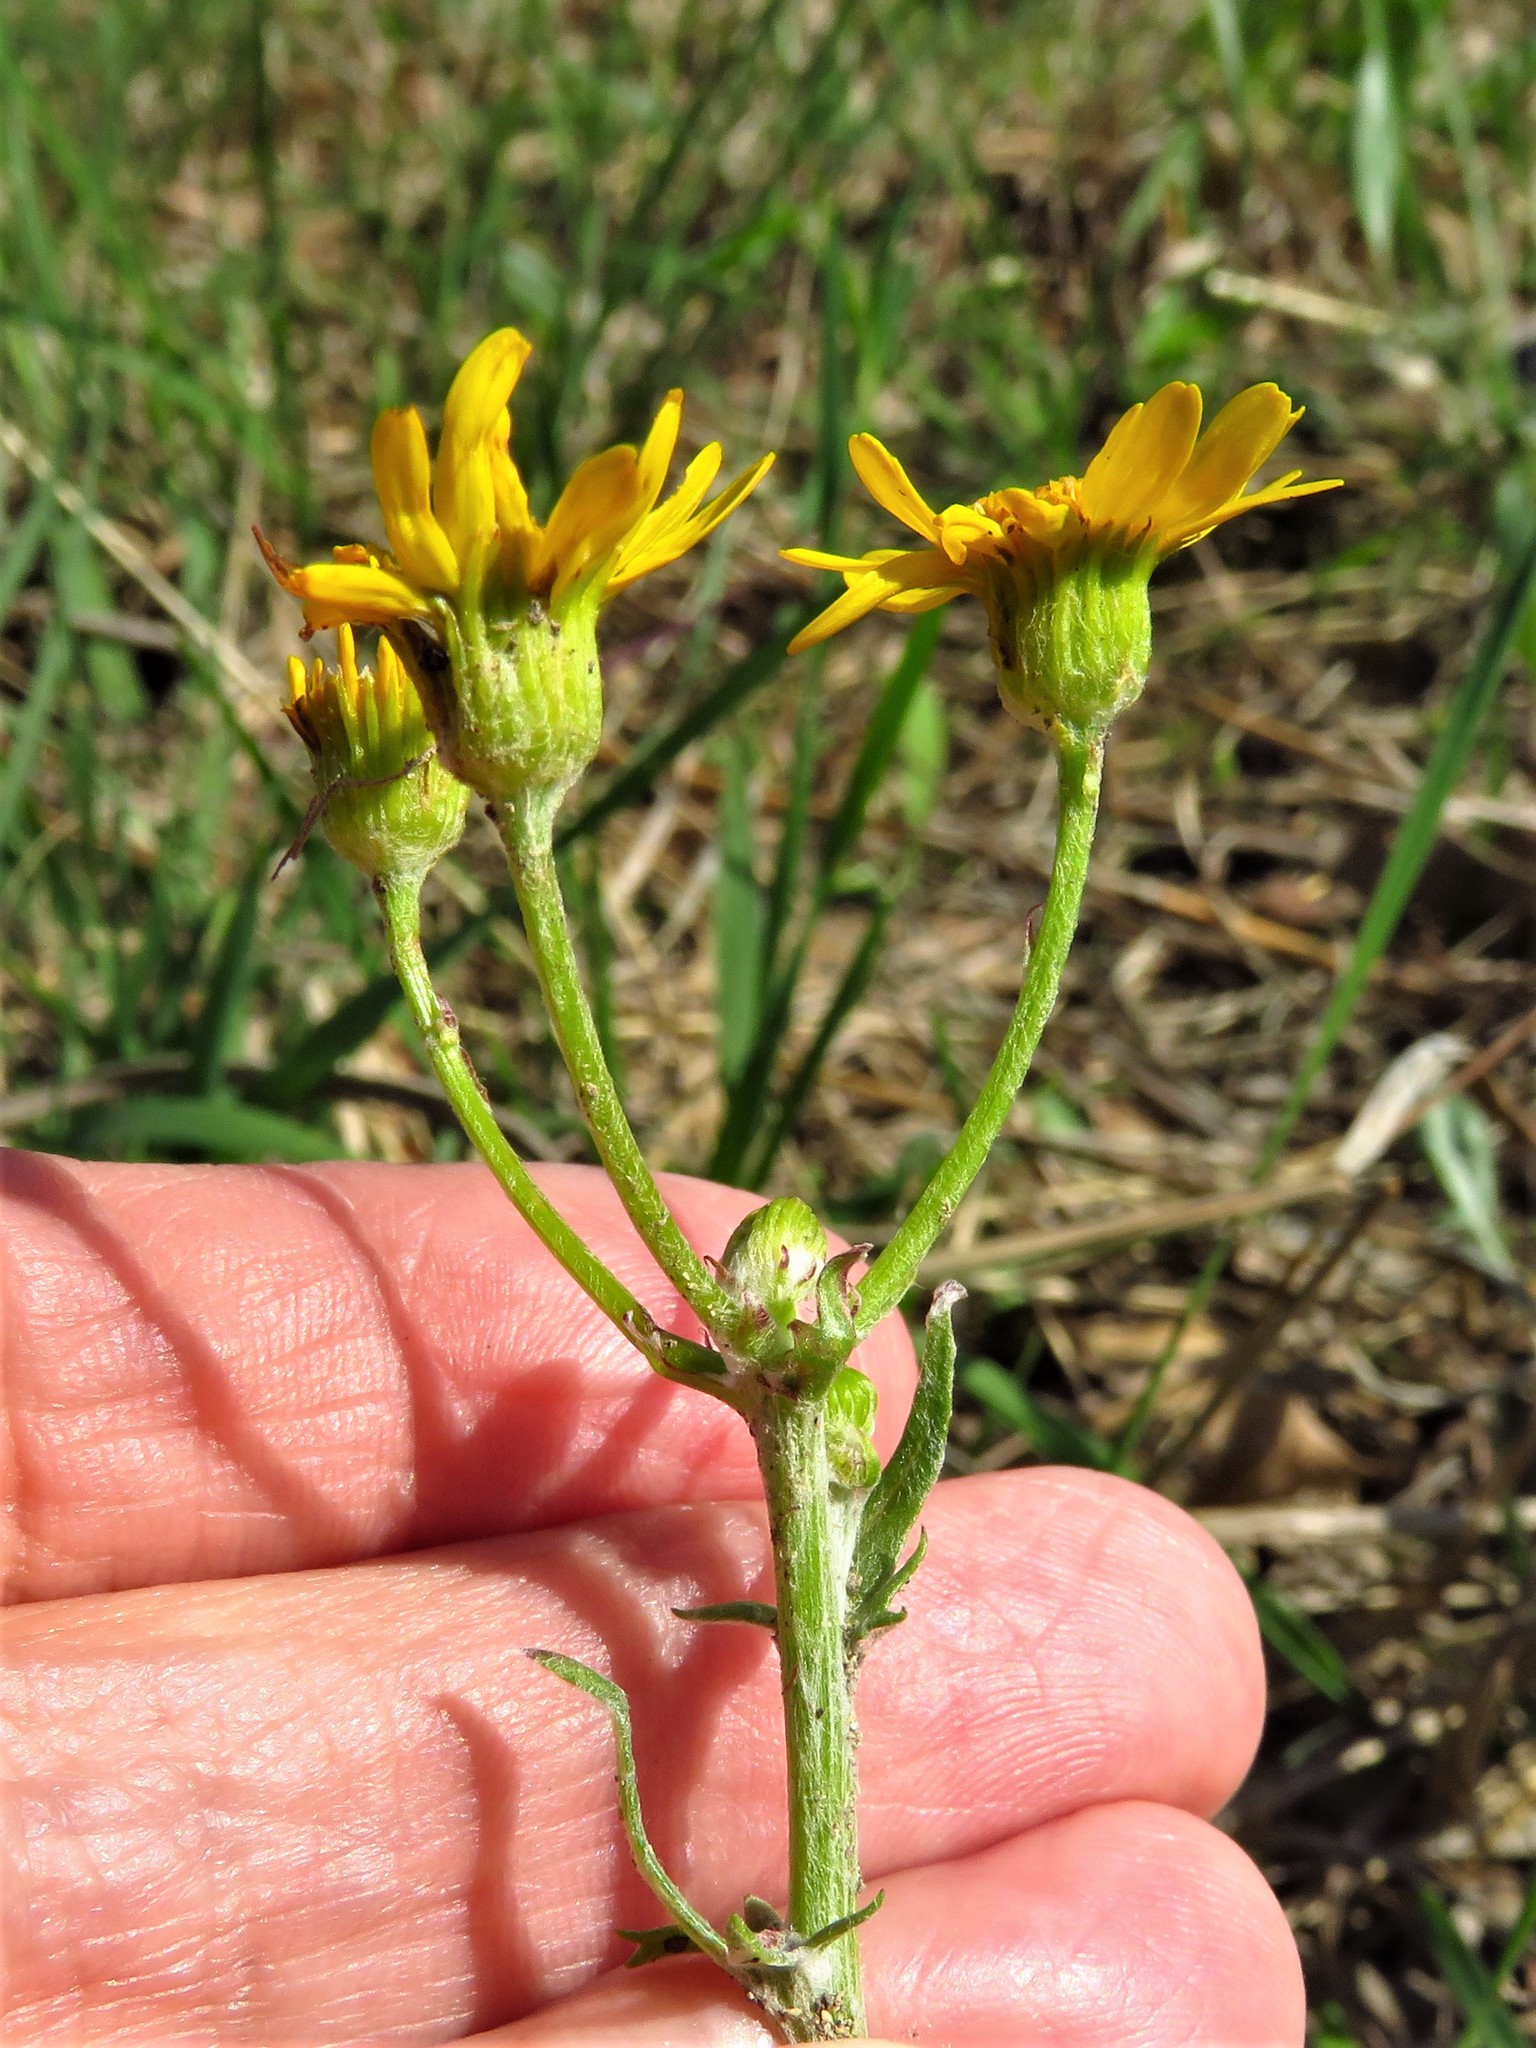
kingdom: Plantae
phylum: Tracheophyta
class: Magnoliopsida
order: Asterales
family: Asteraceae
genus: Packera
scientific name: Packera tampicana
